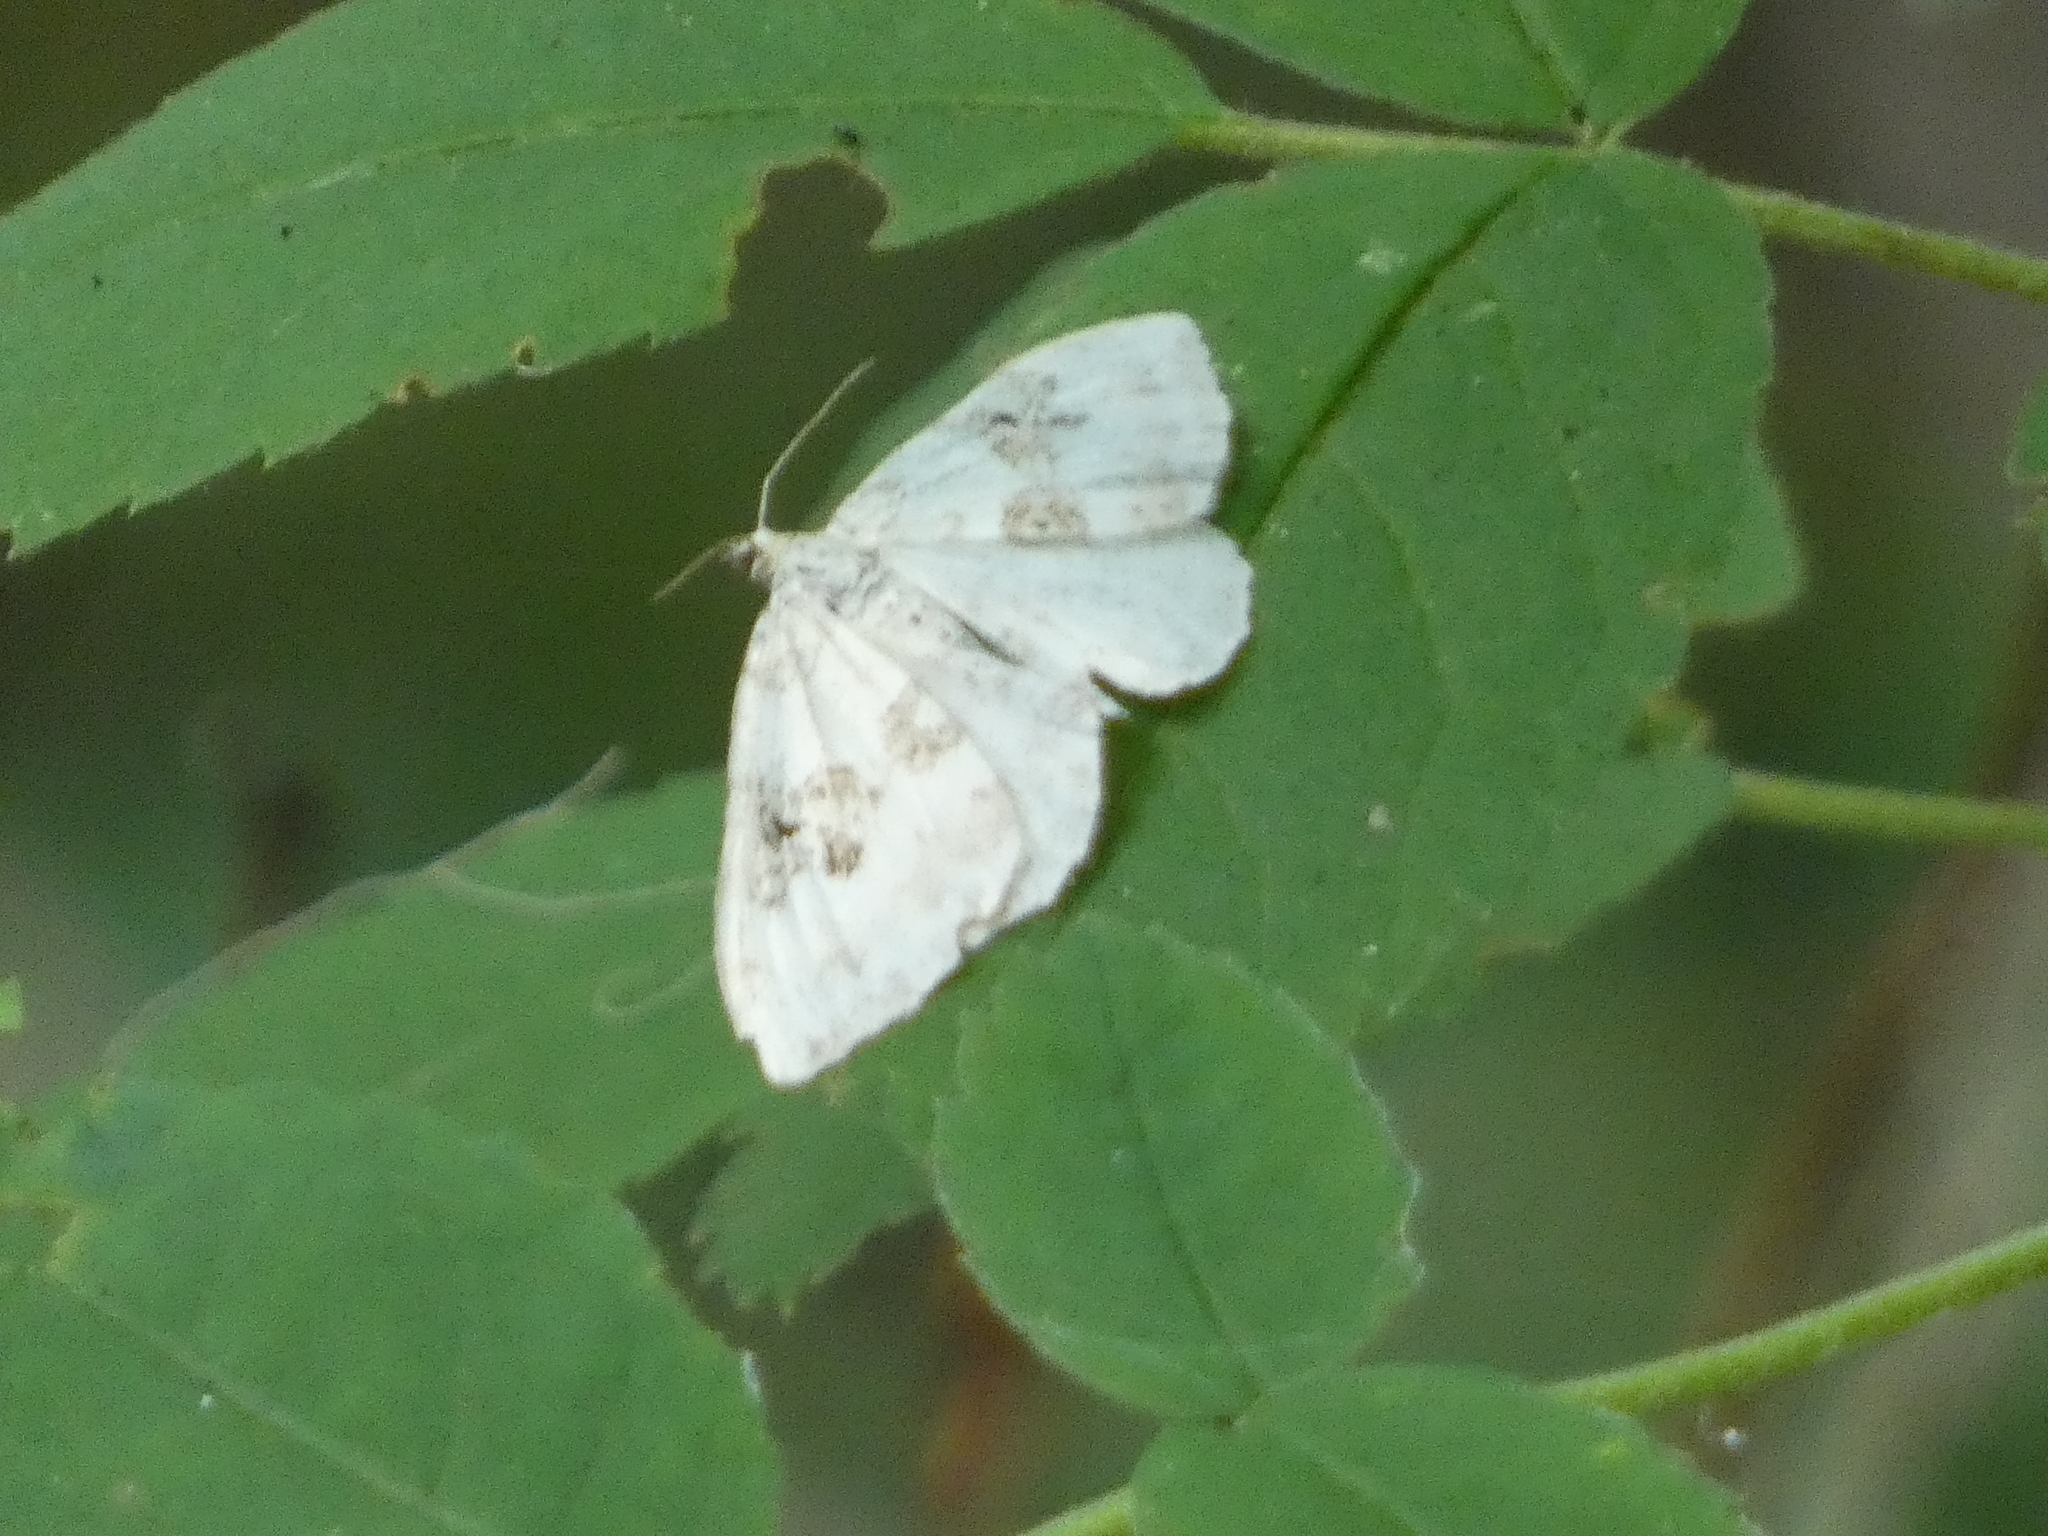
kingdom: Animalia
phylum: Arthropoda
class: Insecta
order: Lepidoptera
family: Geometridae
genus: Xanthorhoe
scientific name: Xanthorhoe montanata
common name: Silver-ground carpet
